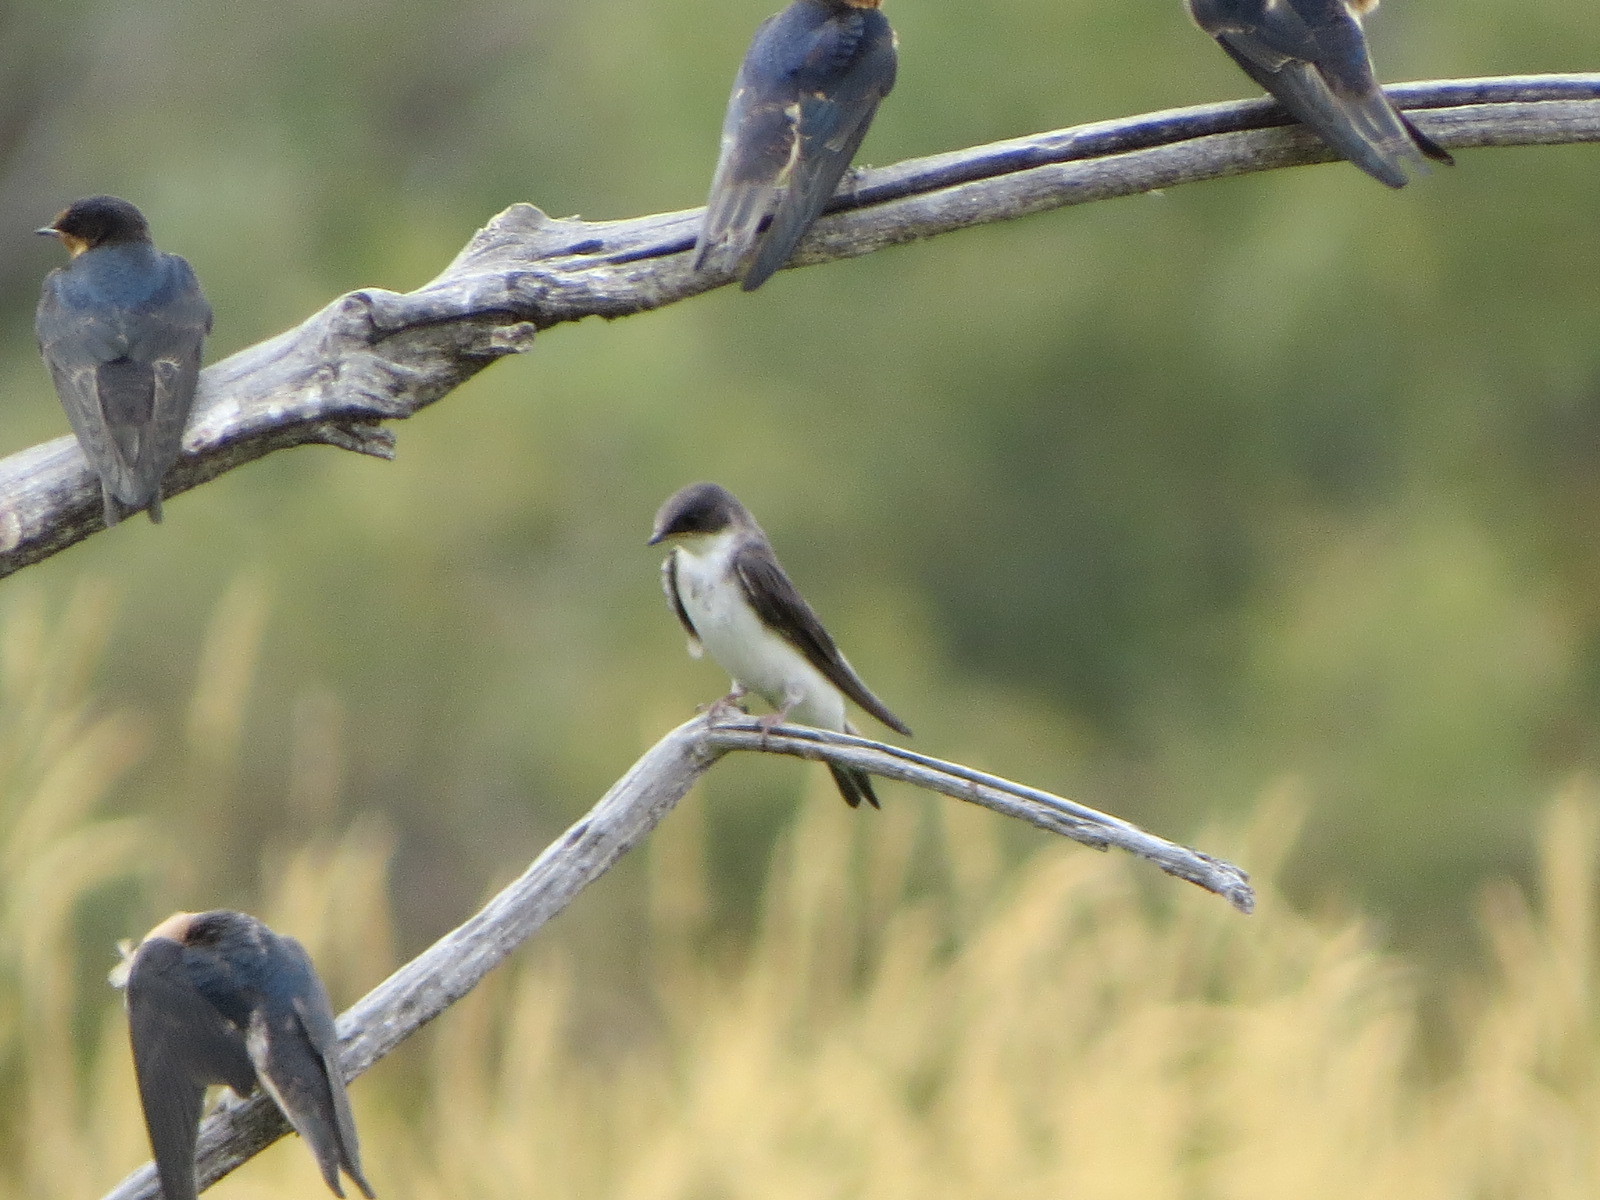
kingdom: Animalia
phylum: Chordata
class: Aves
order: Passeriformes
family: Hirundinidae
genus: Tachycineta
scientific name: Tachycineta bicolor
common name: Tree swallow
